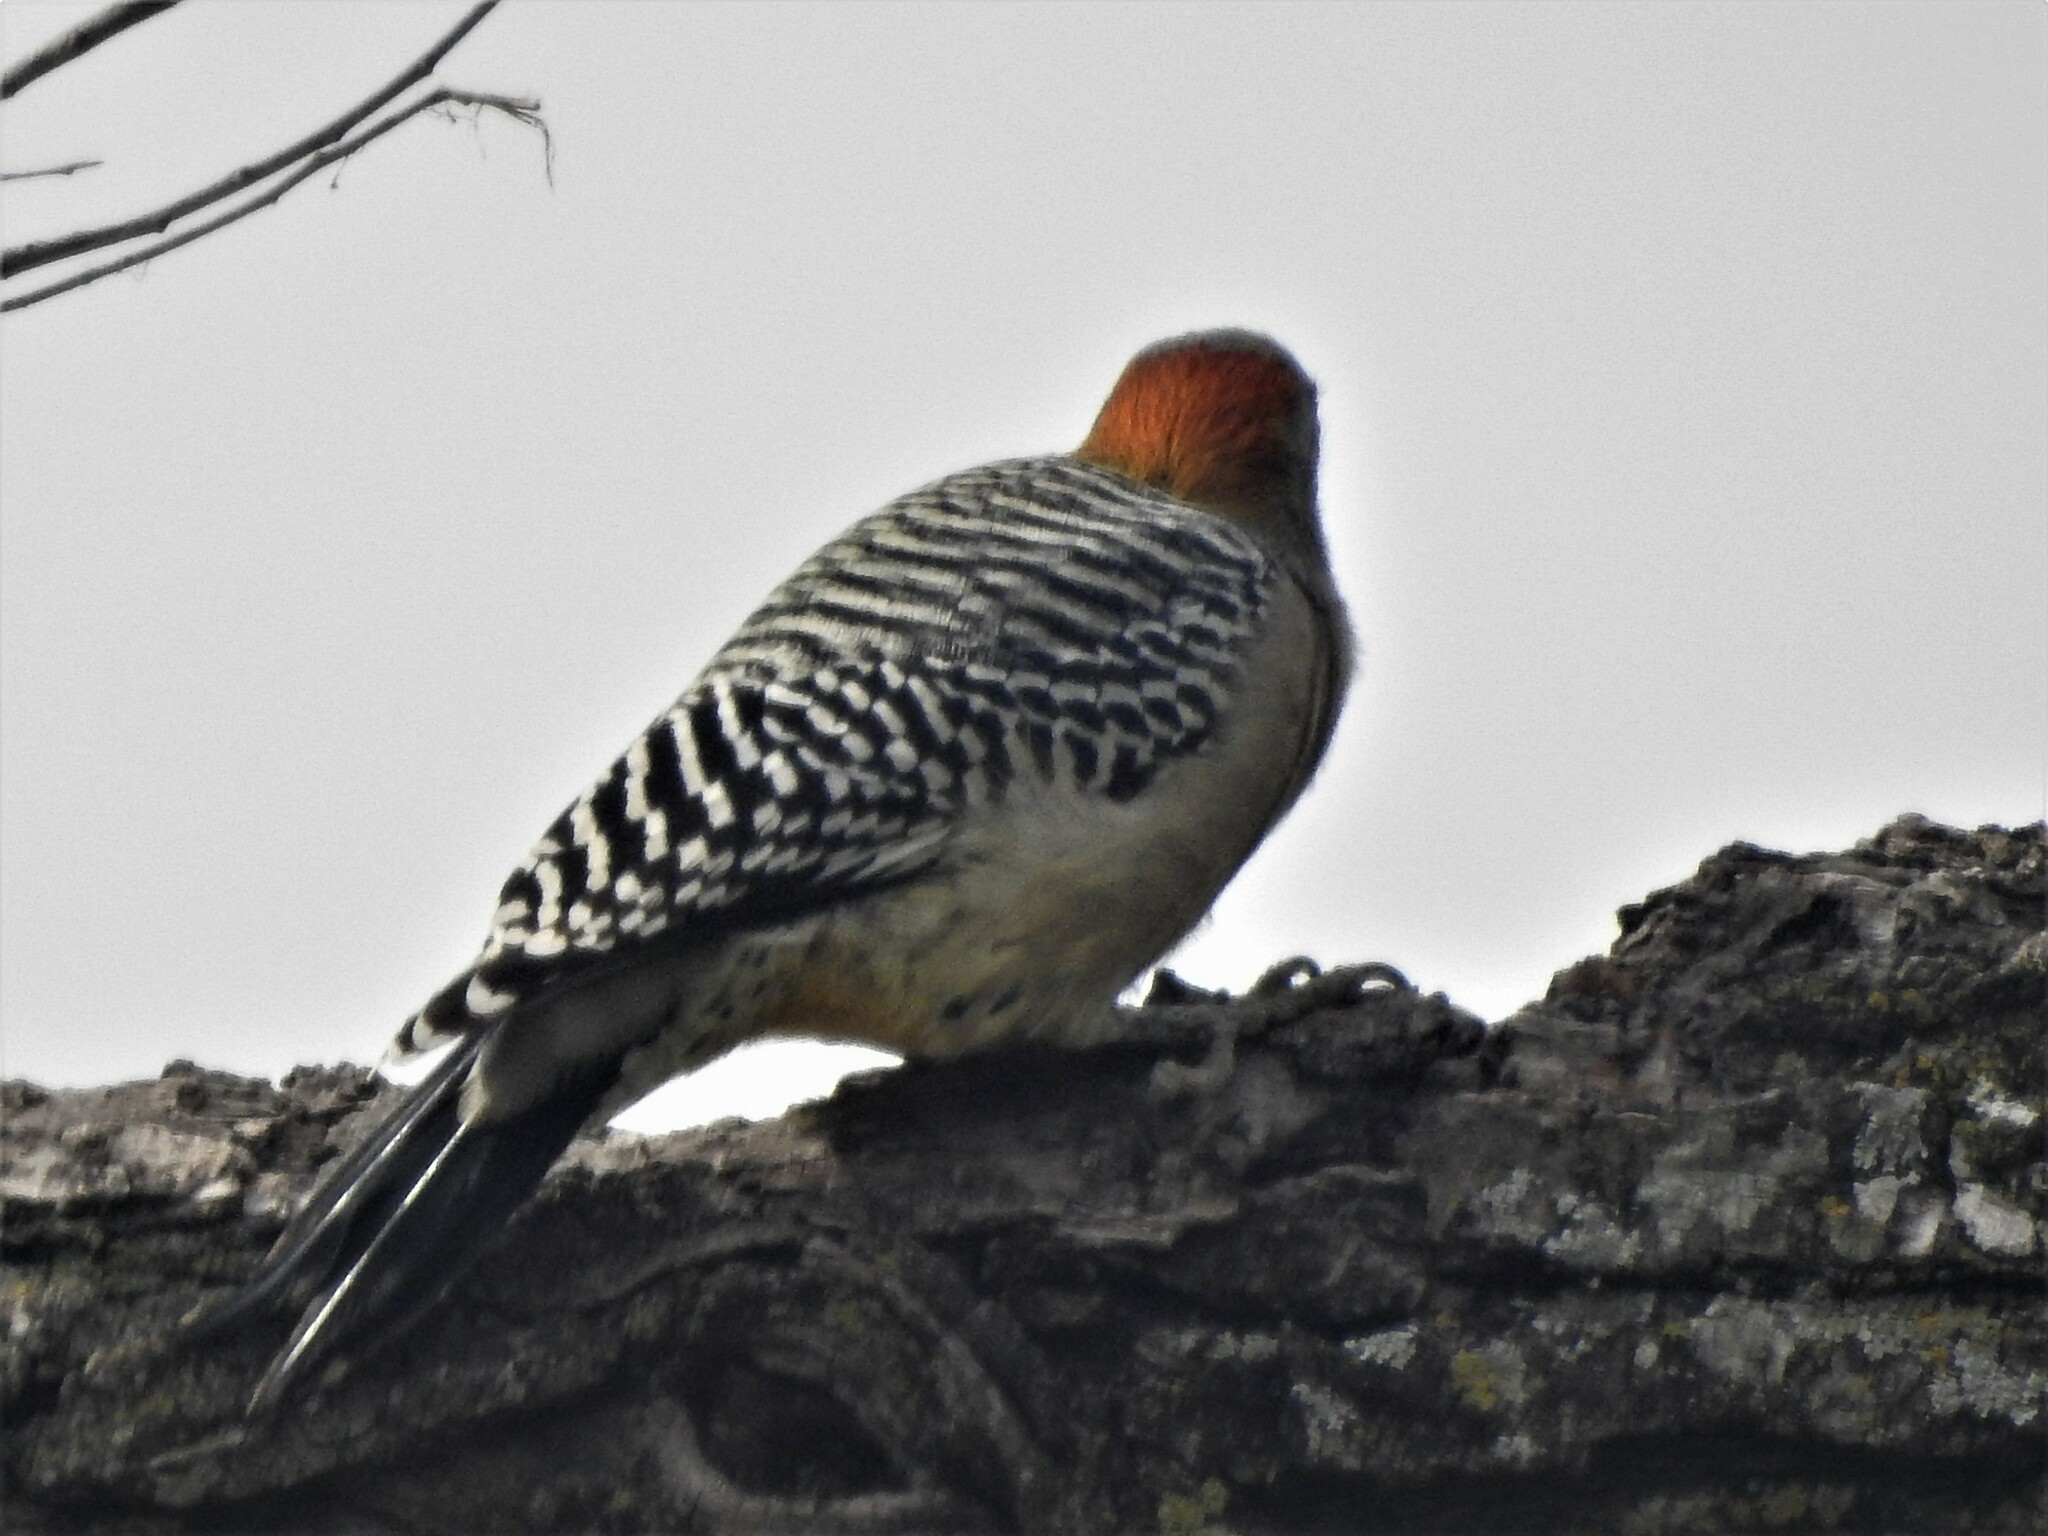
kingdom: Animalia
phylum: Chordata
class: Aves
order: Piciformes
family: Picidae
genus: Melanerpes
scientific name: Melanerpes aurifrons
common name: Golden-fronted woodpecker
